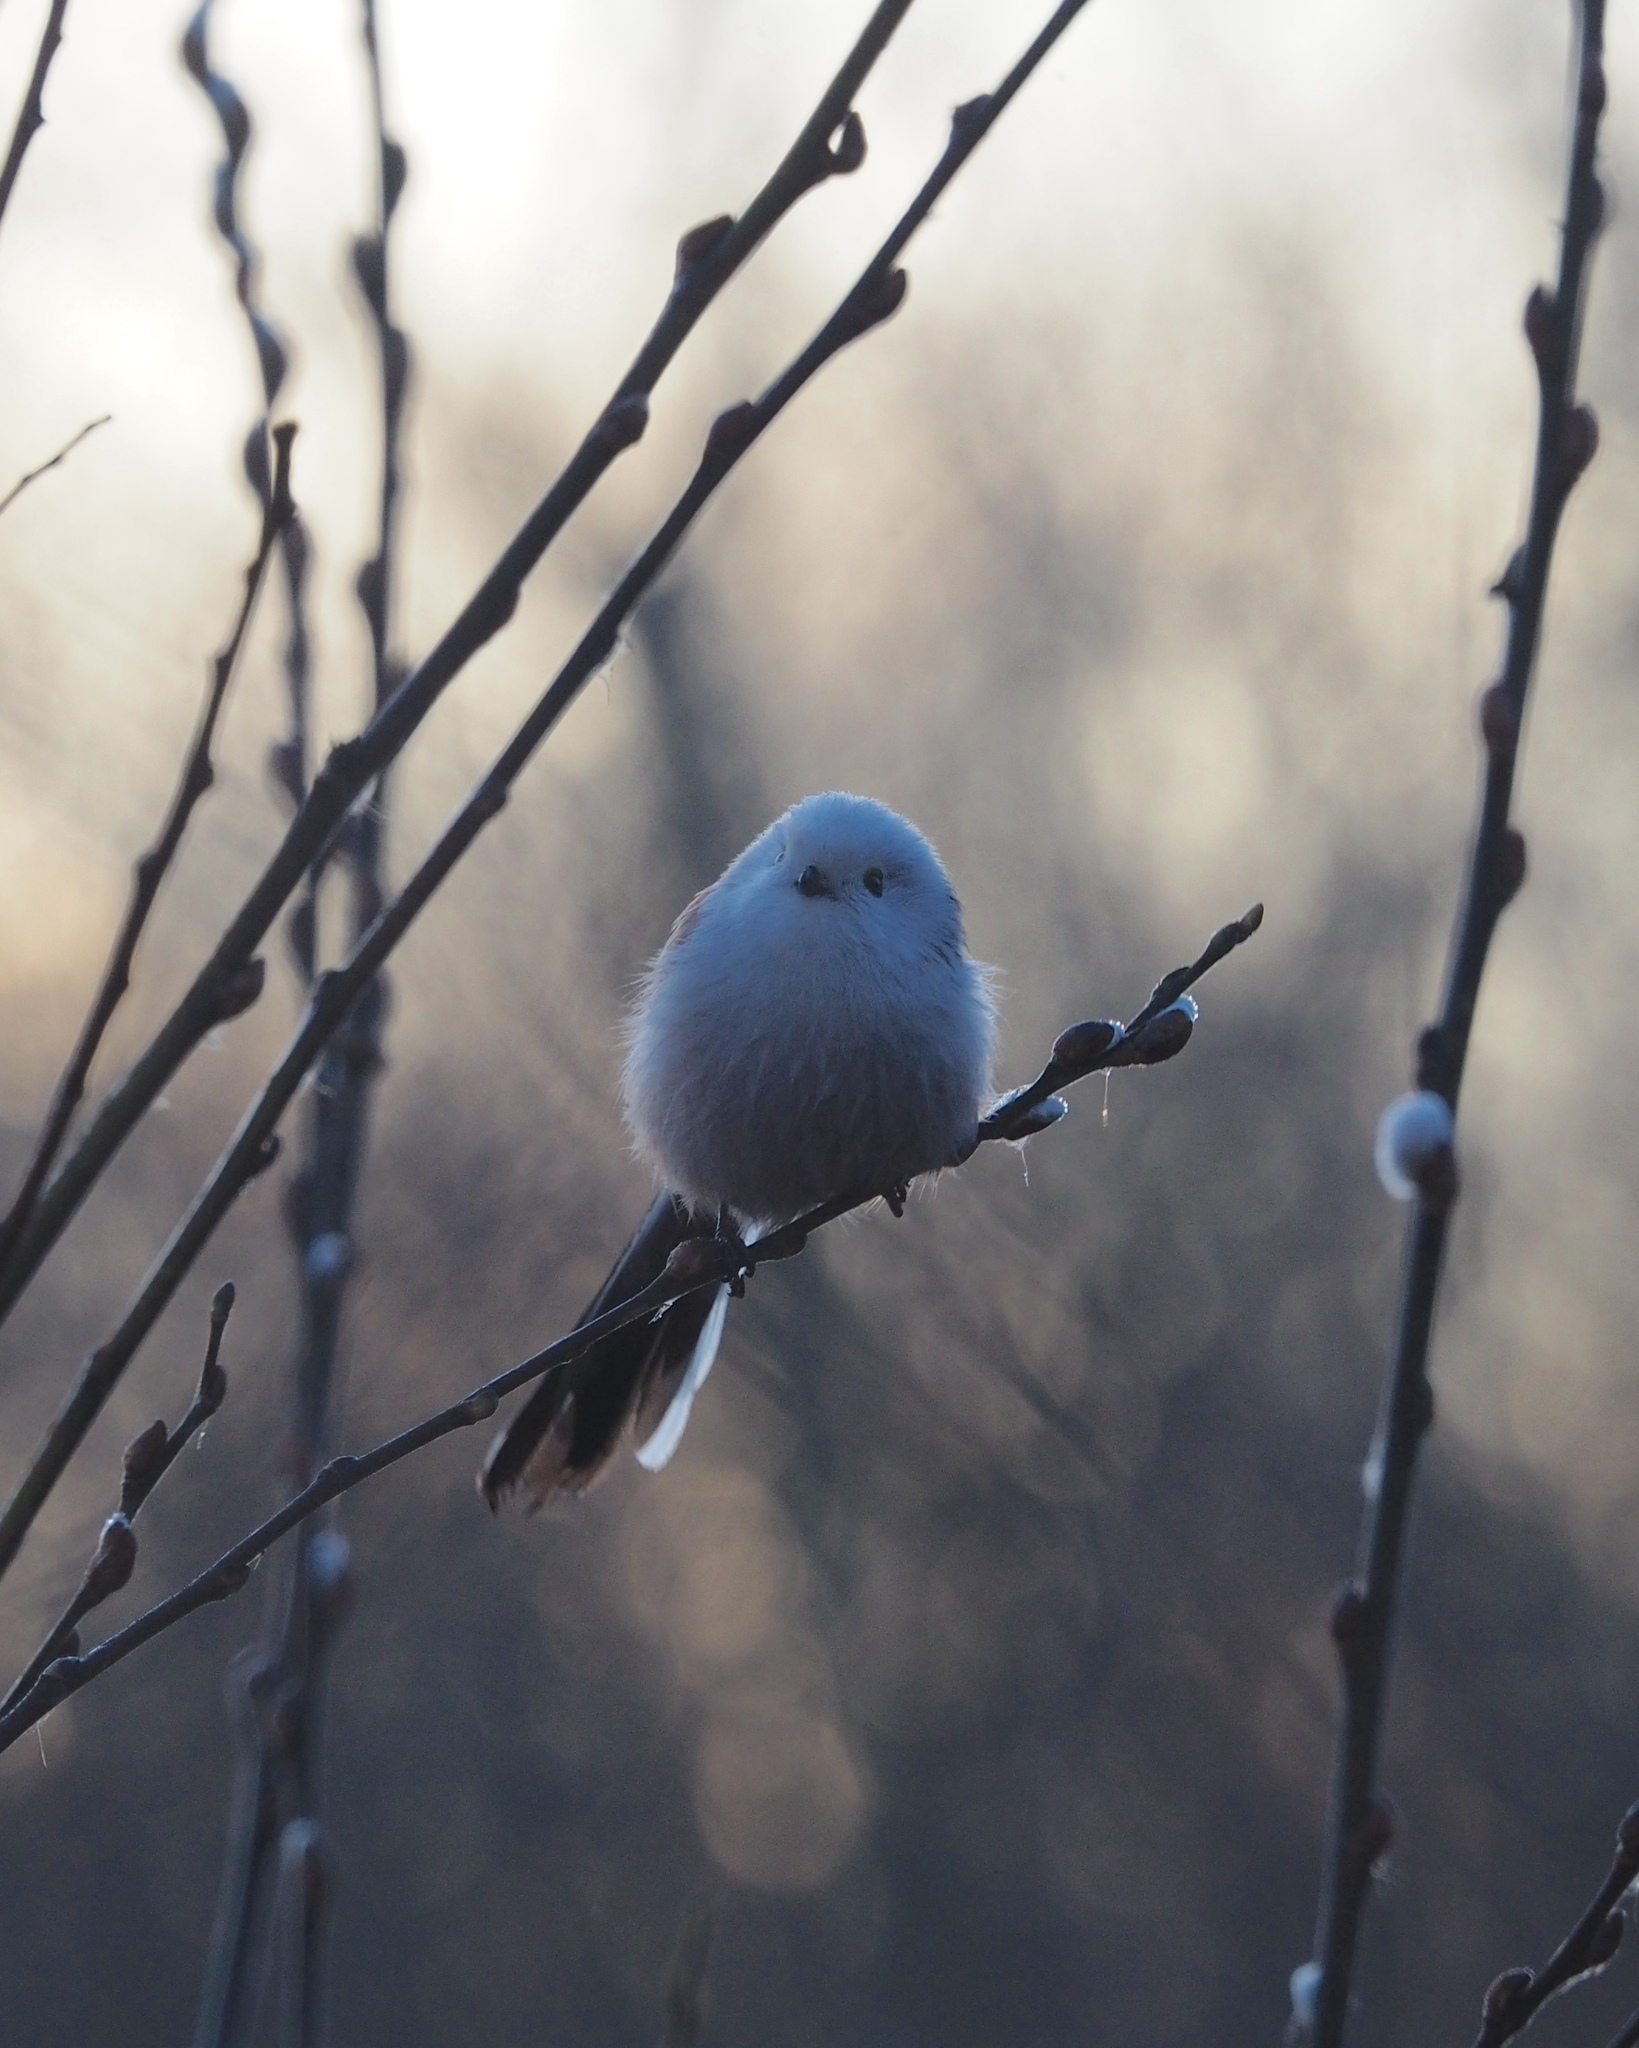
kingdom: Animalia
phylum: Chordata
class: Aves
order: Passeriformes
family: Aegithalidae
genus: Aegithalos
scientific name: Aegithalos caudatus
